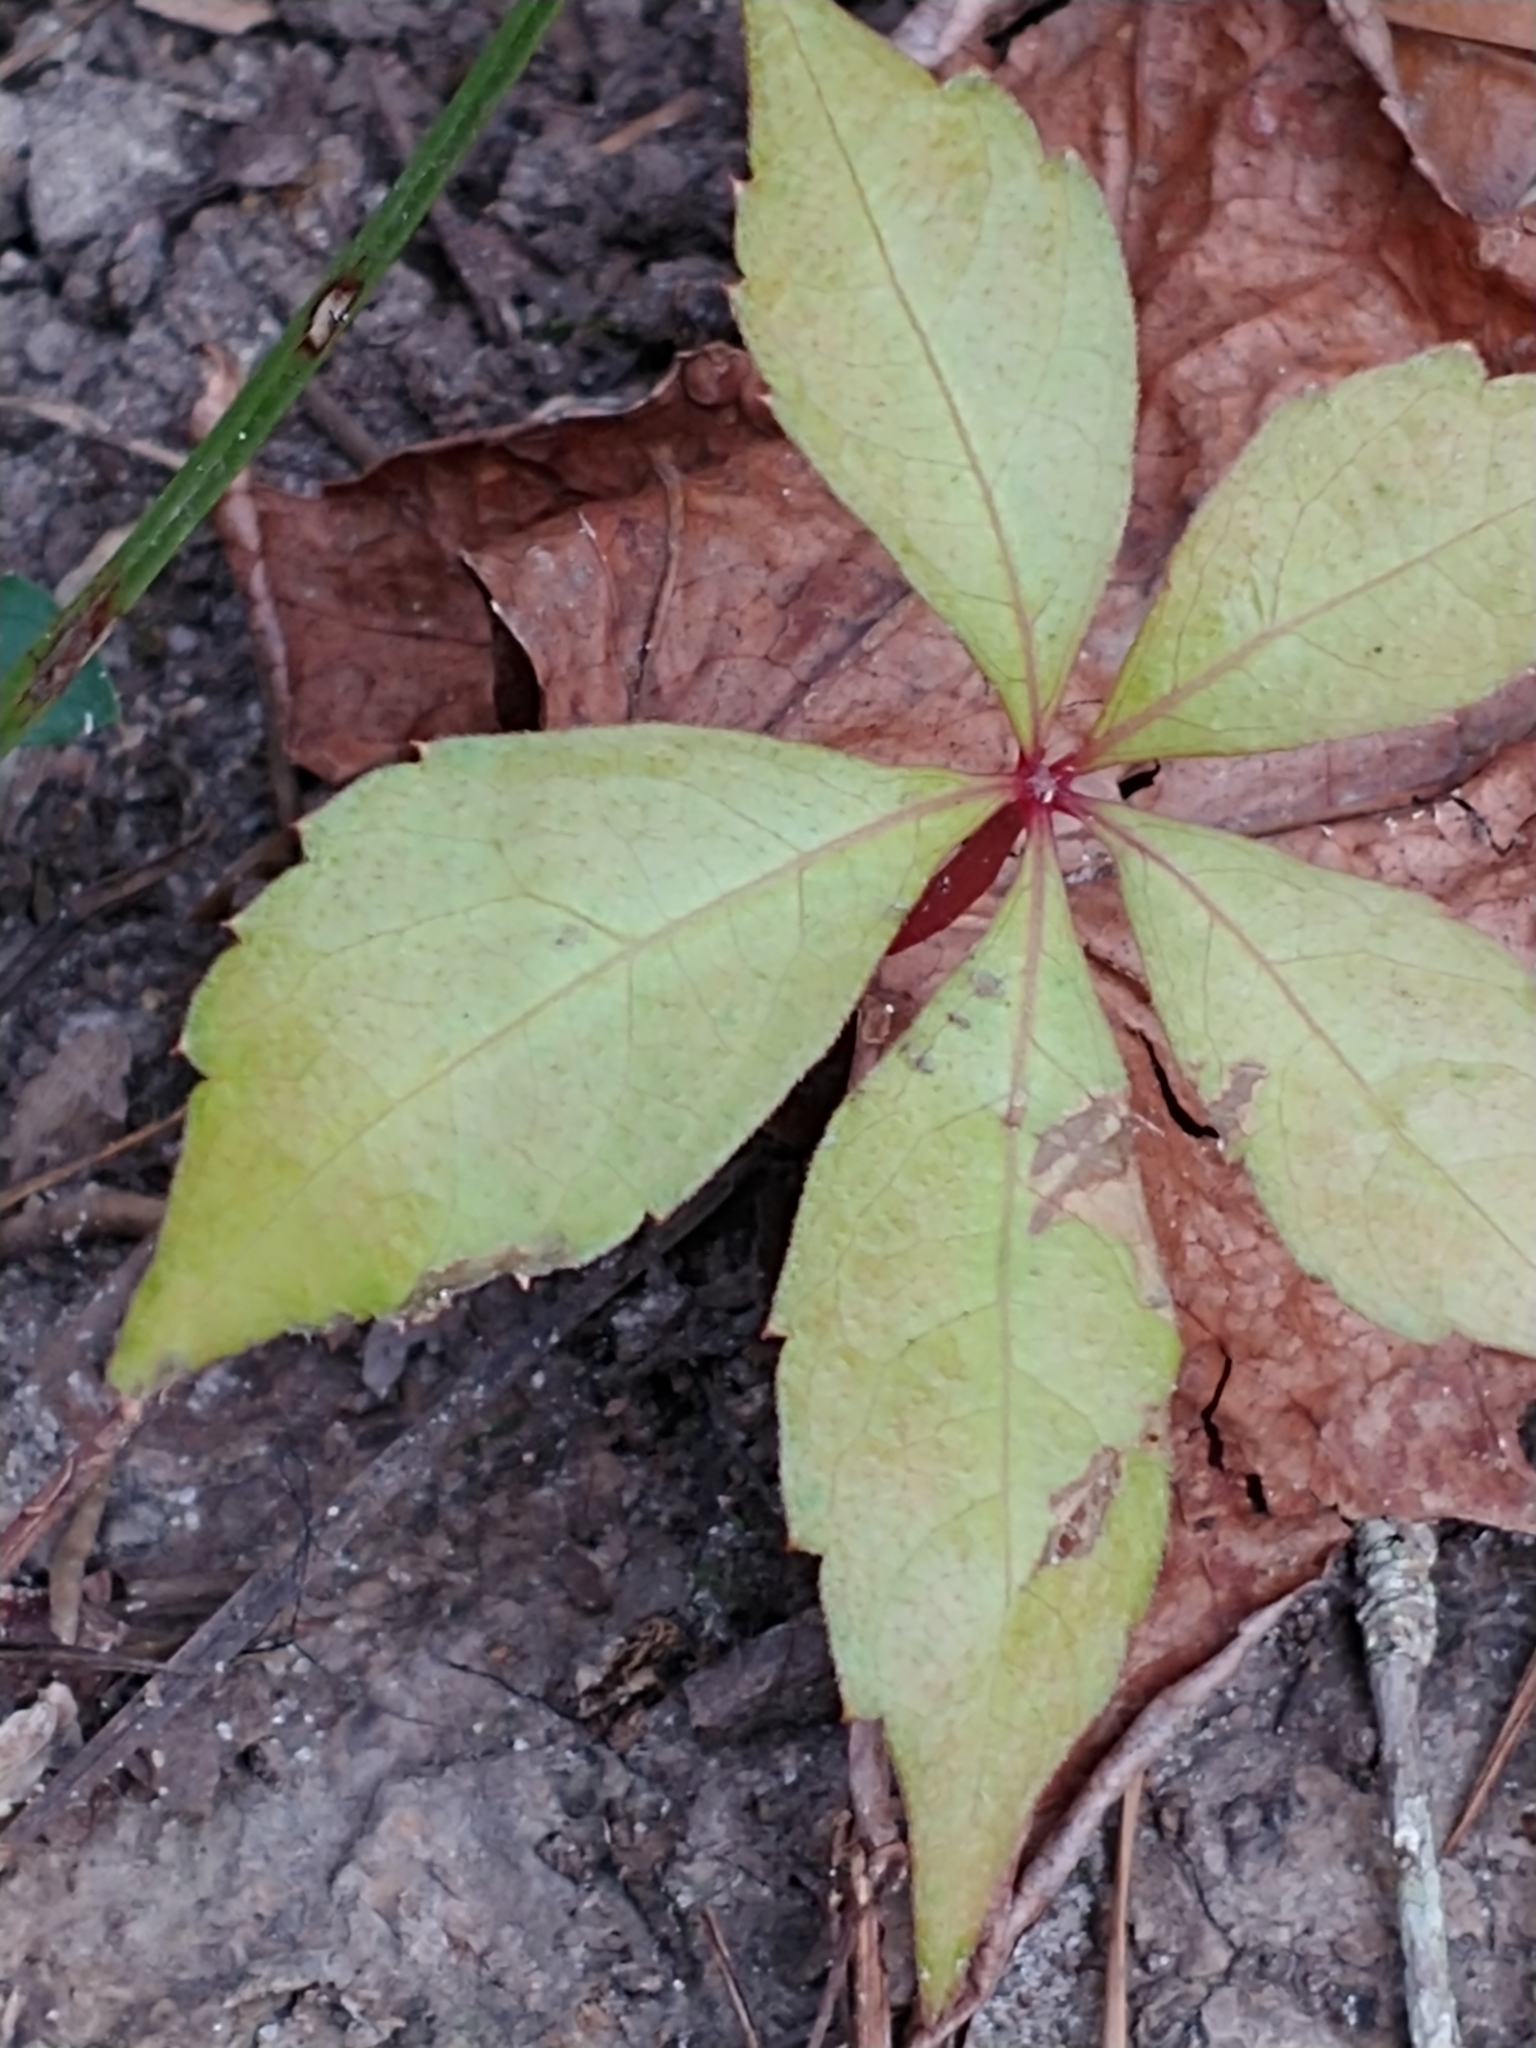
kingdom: Plantae
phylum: Tracheophyta
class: Magnoliopsida
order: Vitales
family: Vitaceae
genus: Parthenocissus
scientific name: Parthenocissus quinquefolia
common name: Virginia-creeper
